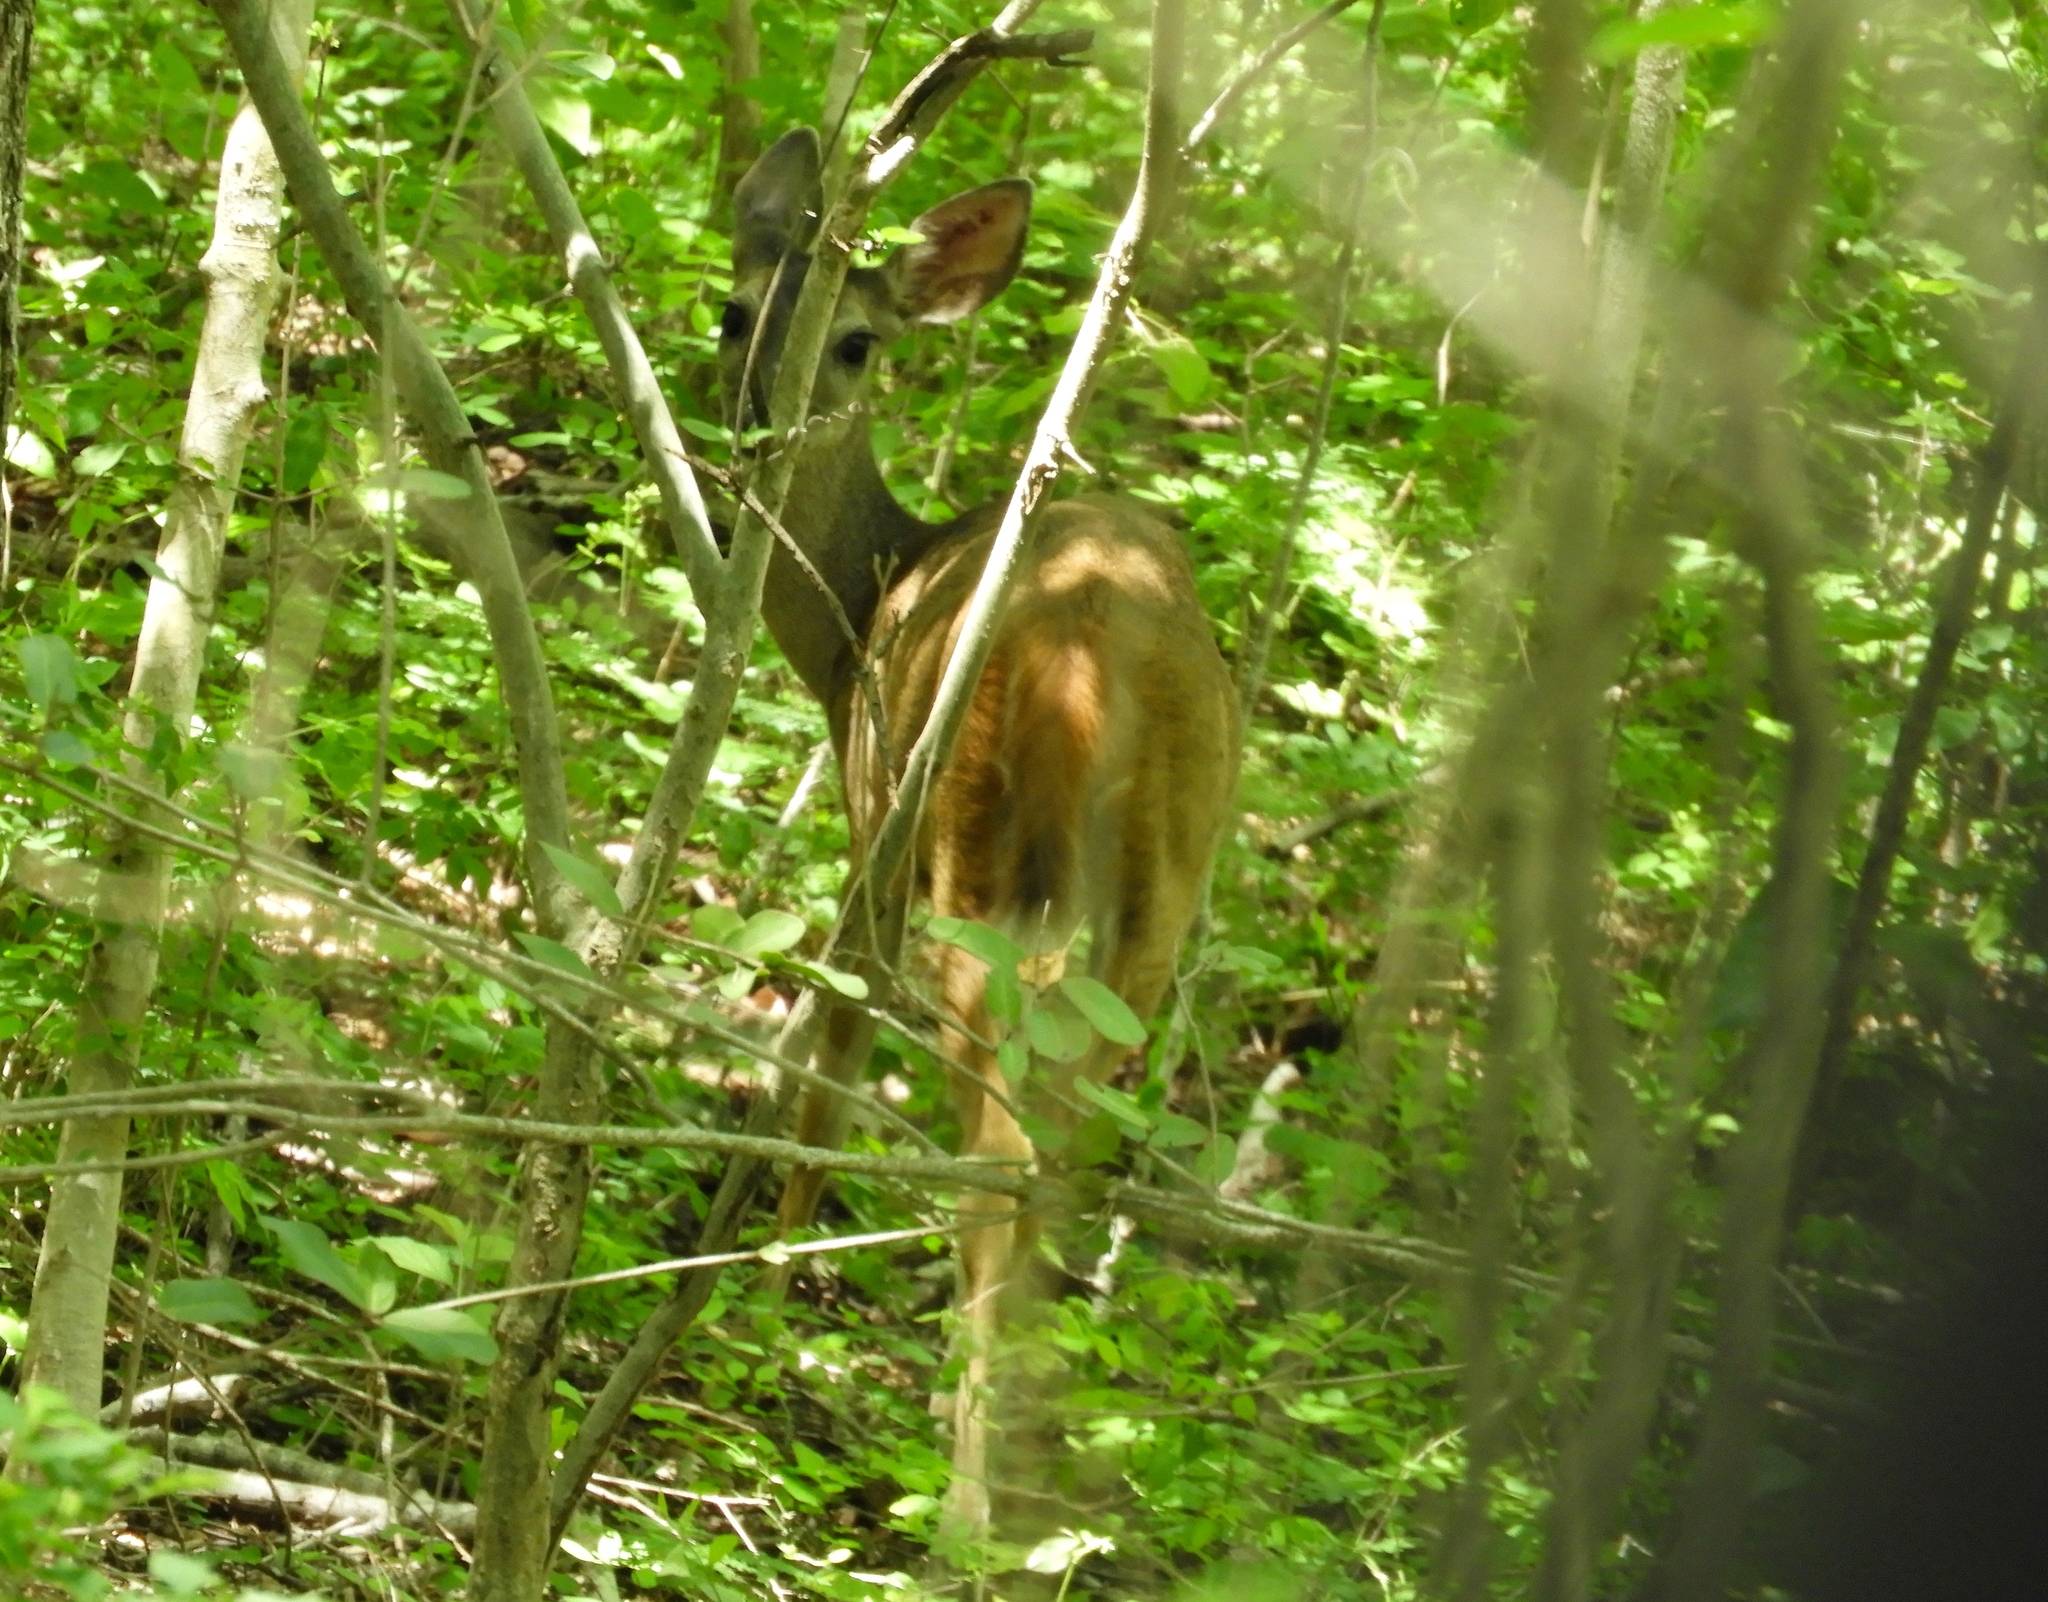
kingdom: Animalia
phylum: Chordata
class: Mammalia
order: Artiodactyla
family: Cervidae
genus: Odocoileus
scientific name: Odocoileus virginianus
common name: White-tailed deer
